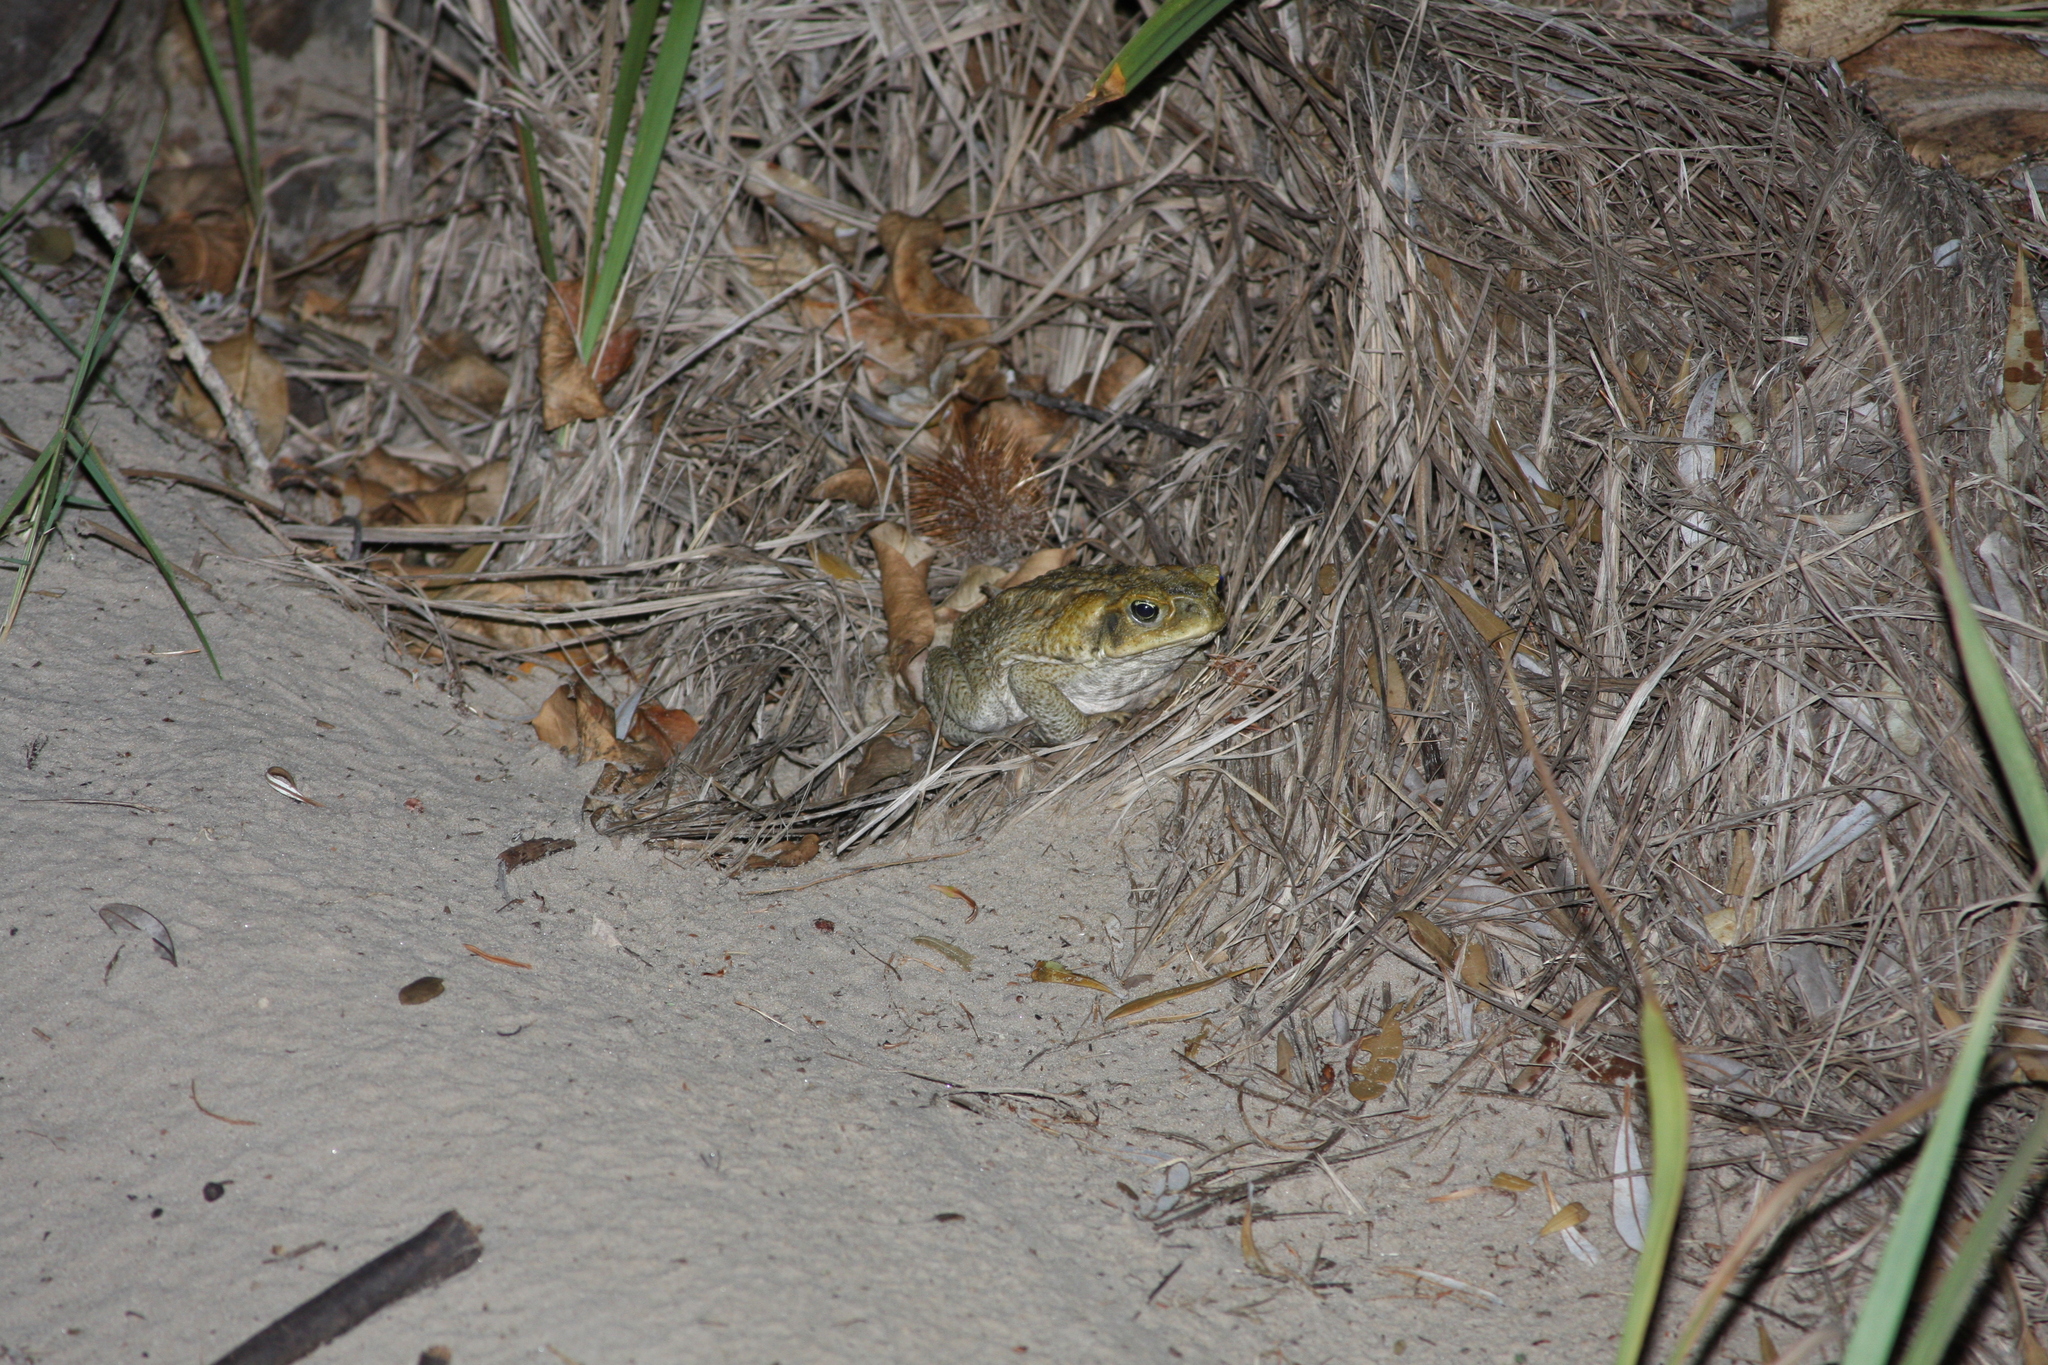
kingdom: Animalia
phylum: Chordata
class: Amphibia
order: Anura
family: Bufonidae
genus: Rhinella
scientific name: Rhinella marina
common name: Cane toad
